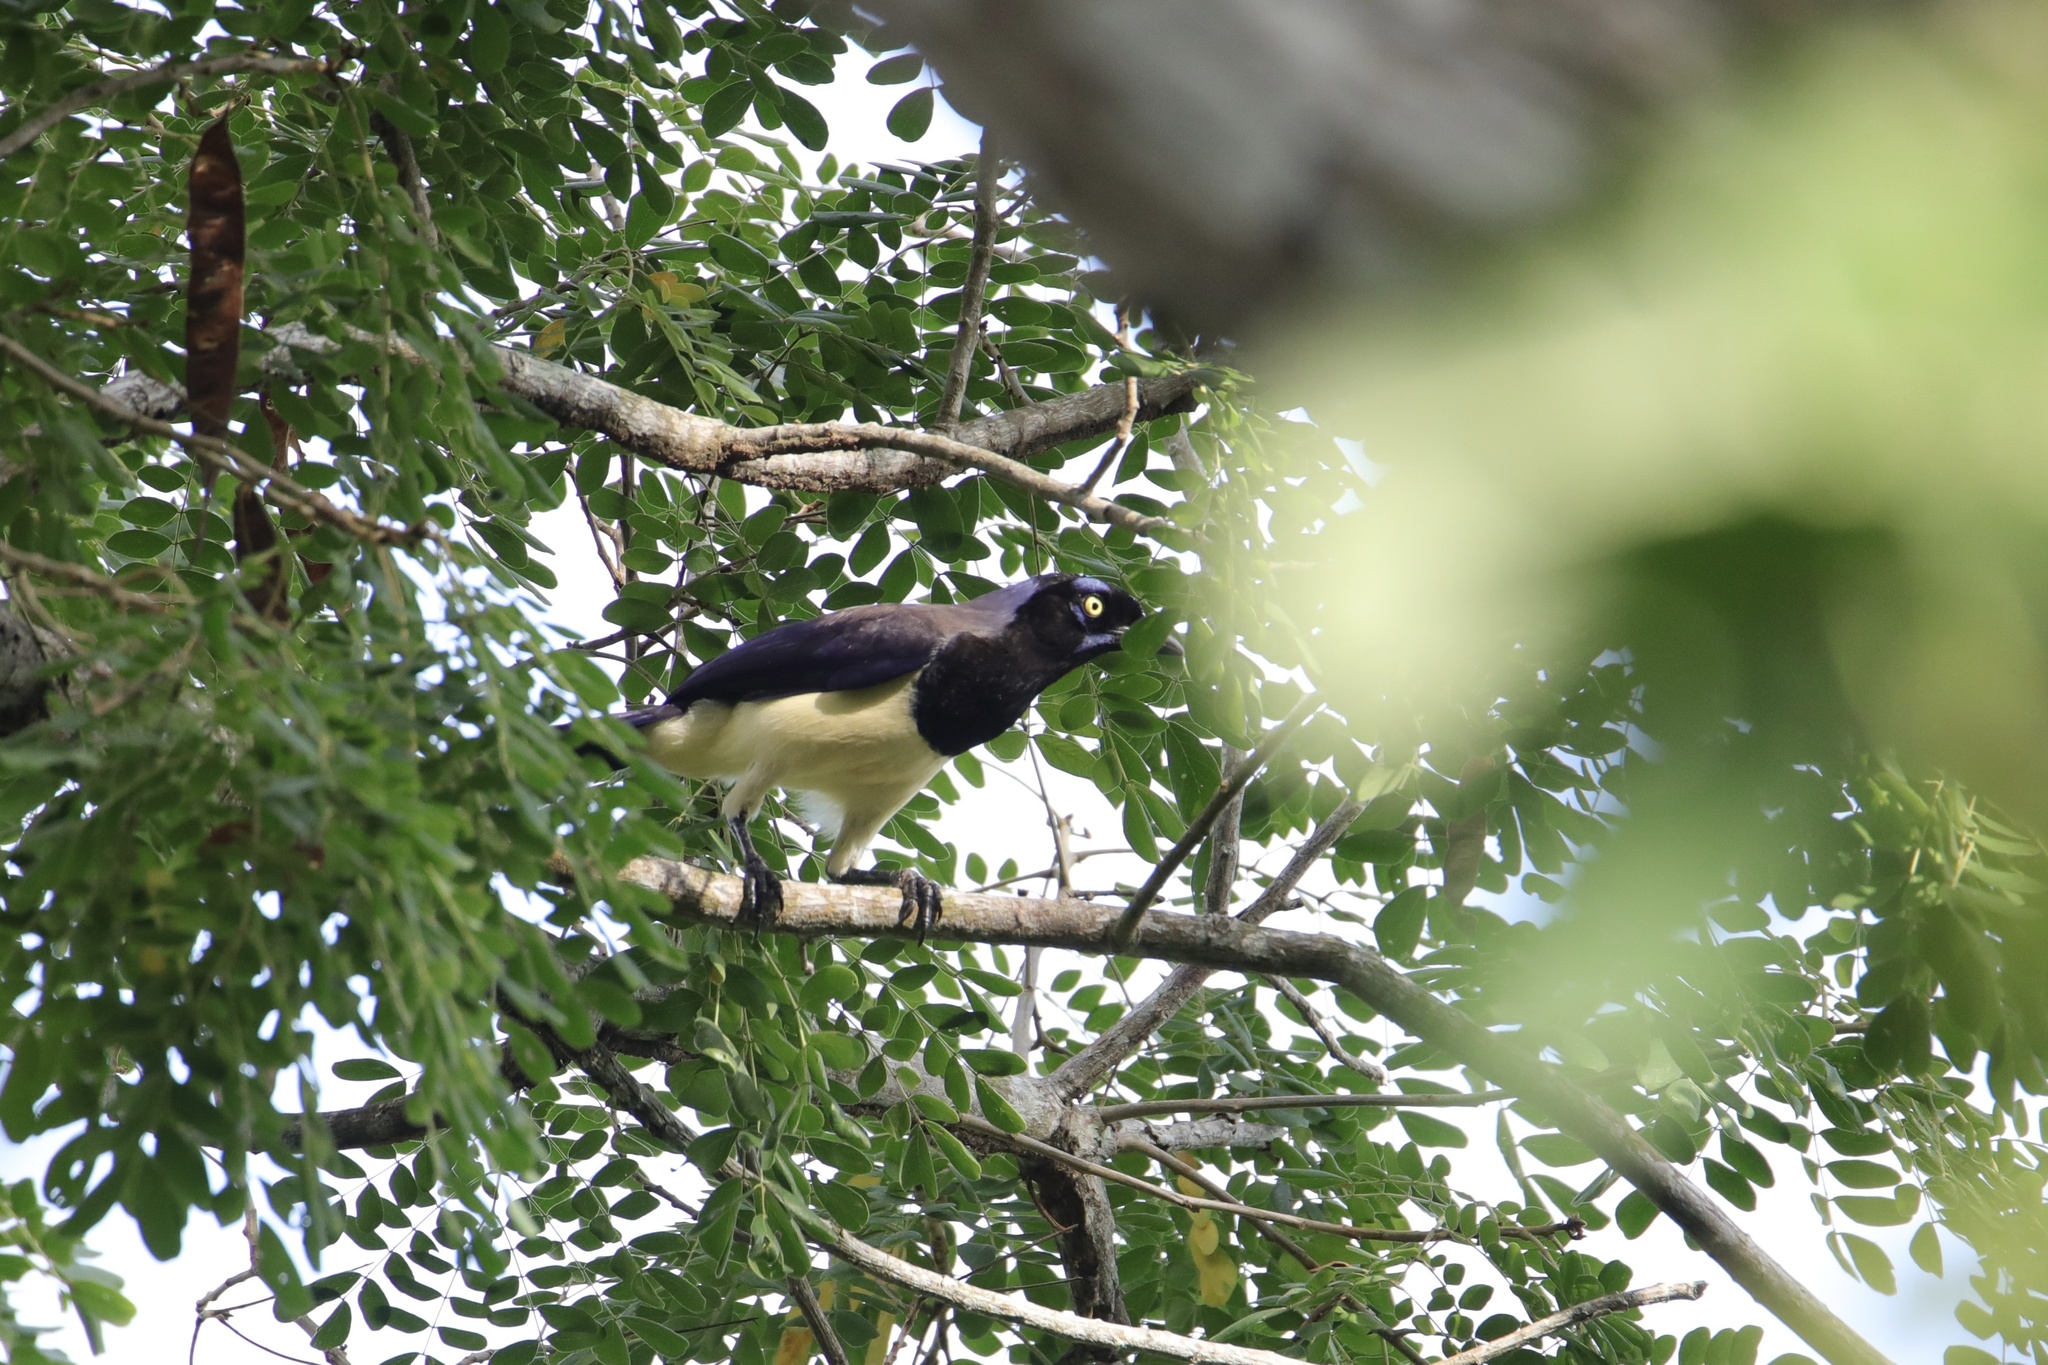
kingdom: Animalia
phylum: Chordata
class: Aves
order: Passeriformes
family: Corvidae
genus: Cyanocorax
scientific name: Cyanocorax affinis
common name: Black-chested jay
